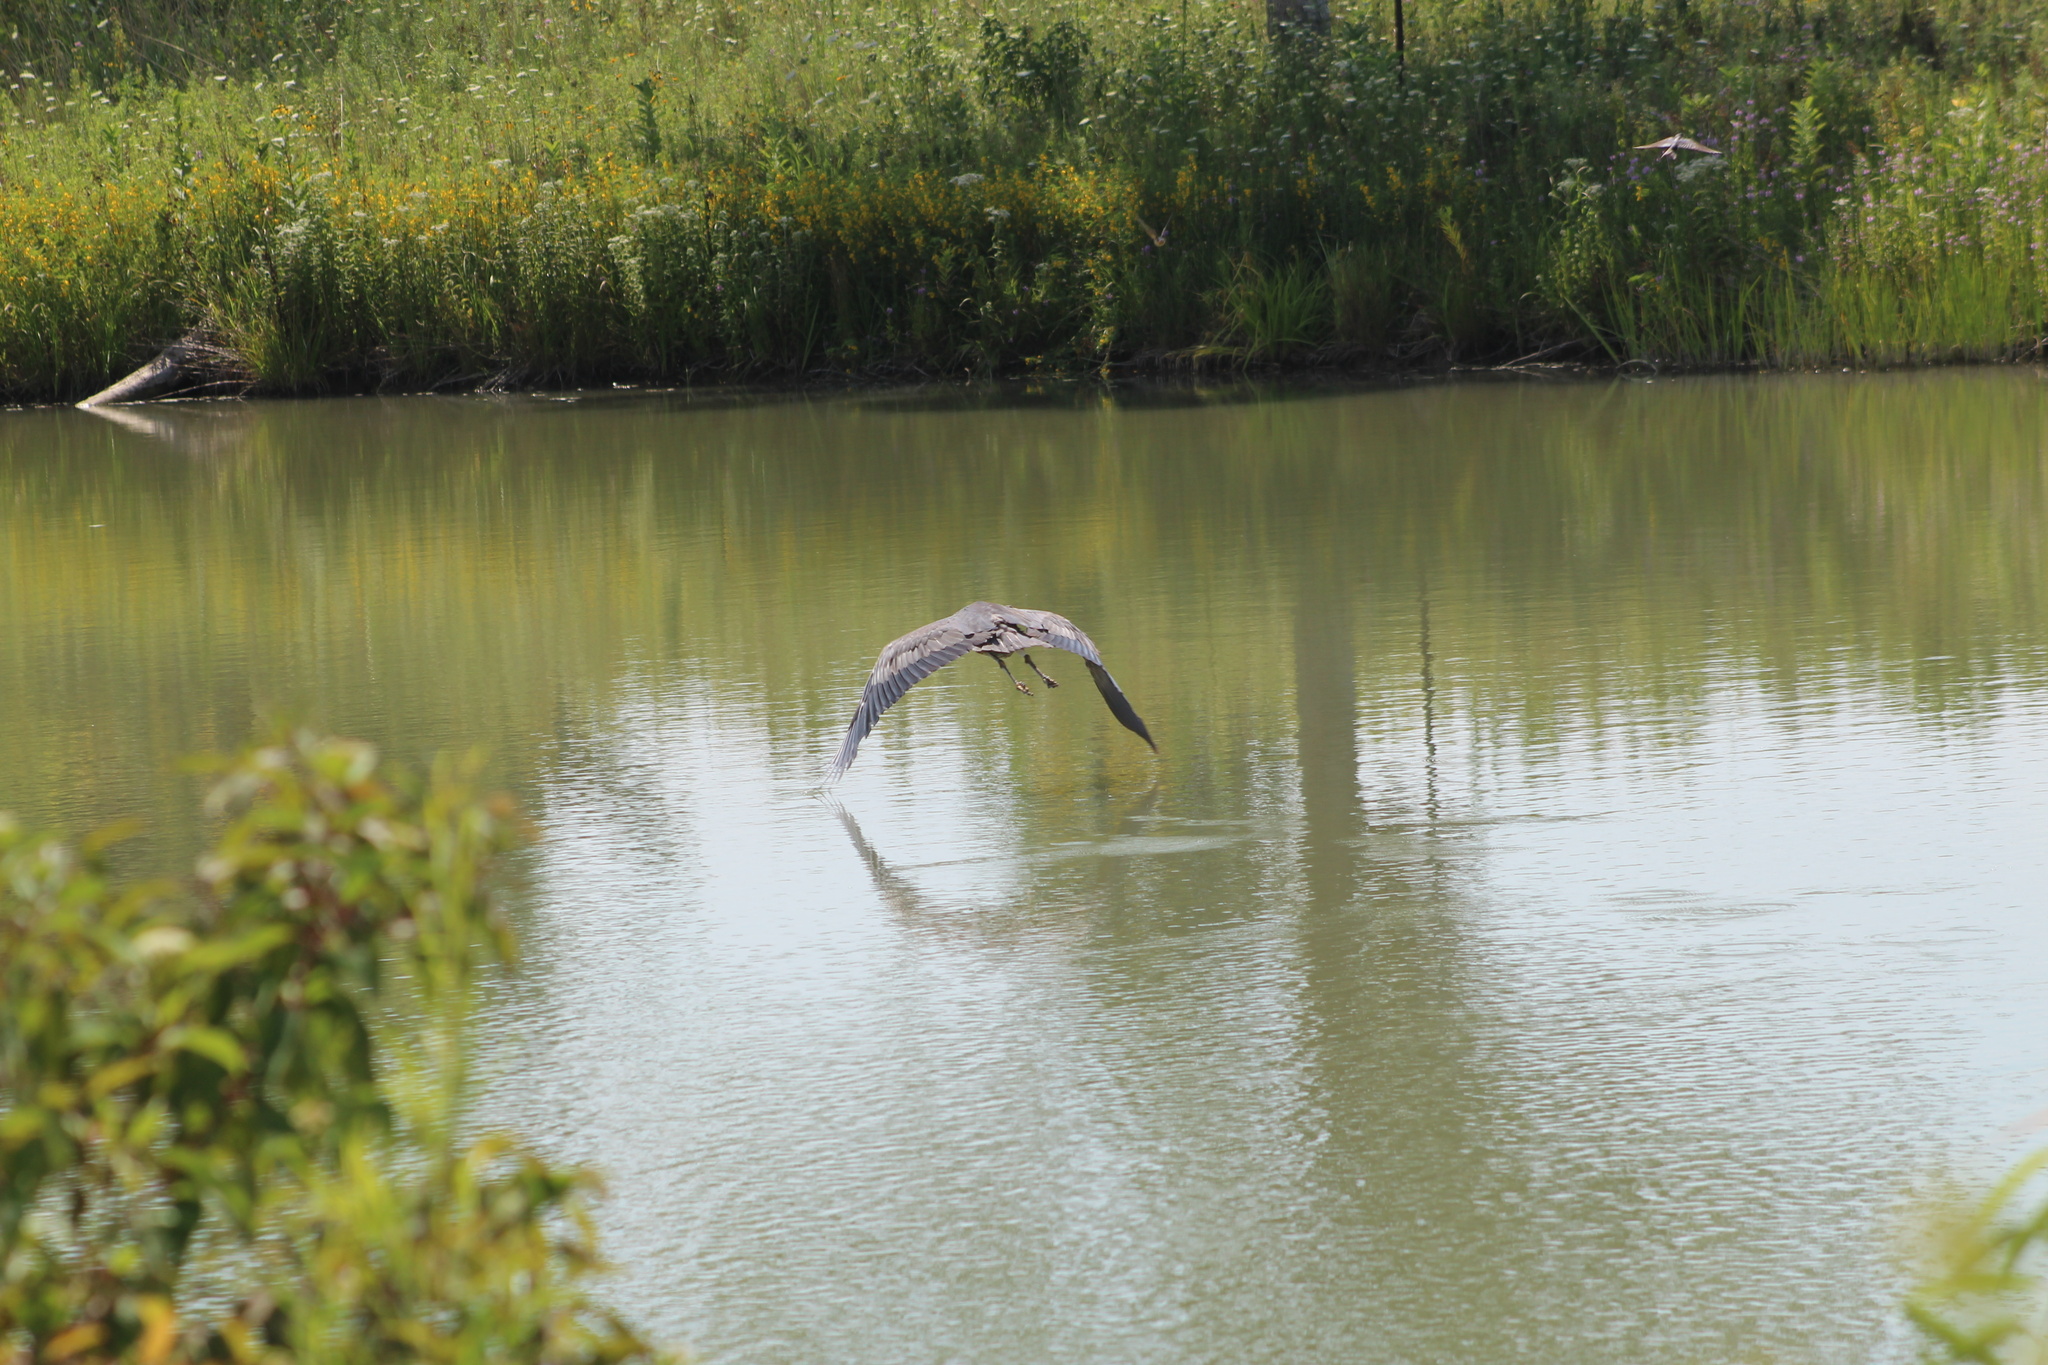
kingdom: Animalia
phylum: Chordata
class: Aves
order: Pelecaniformes
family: Ardeidae
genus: Ardea
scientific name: Ardea herodias
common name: Great blue heron
